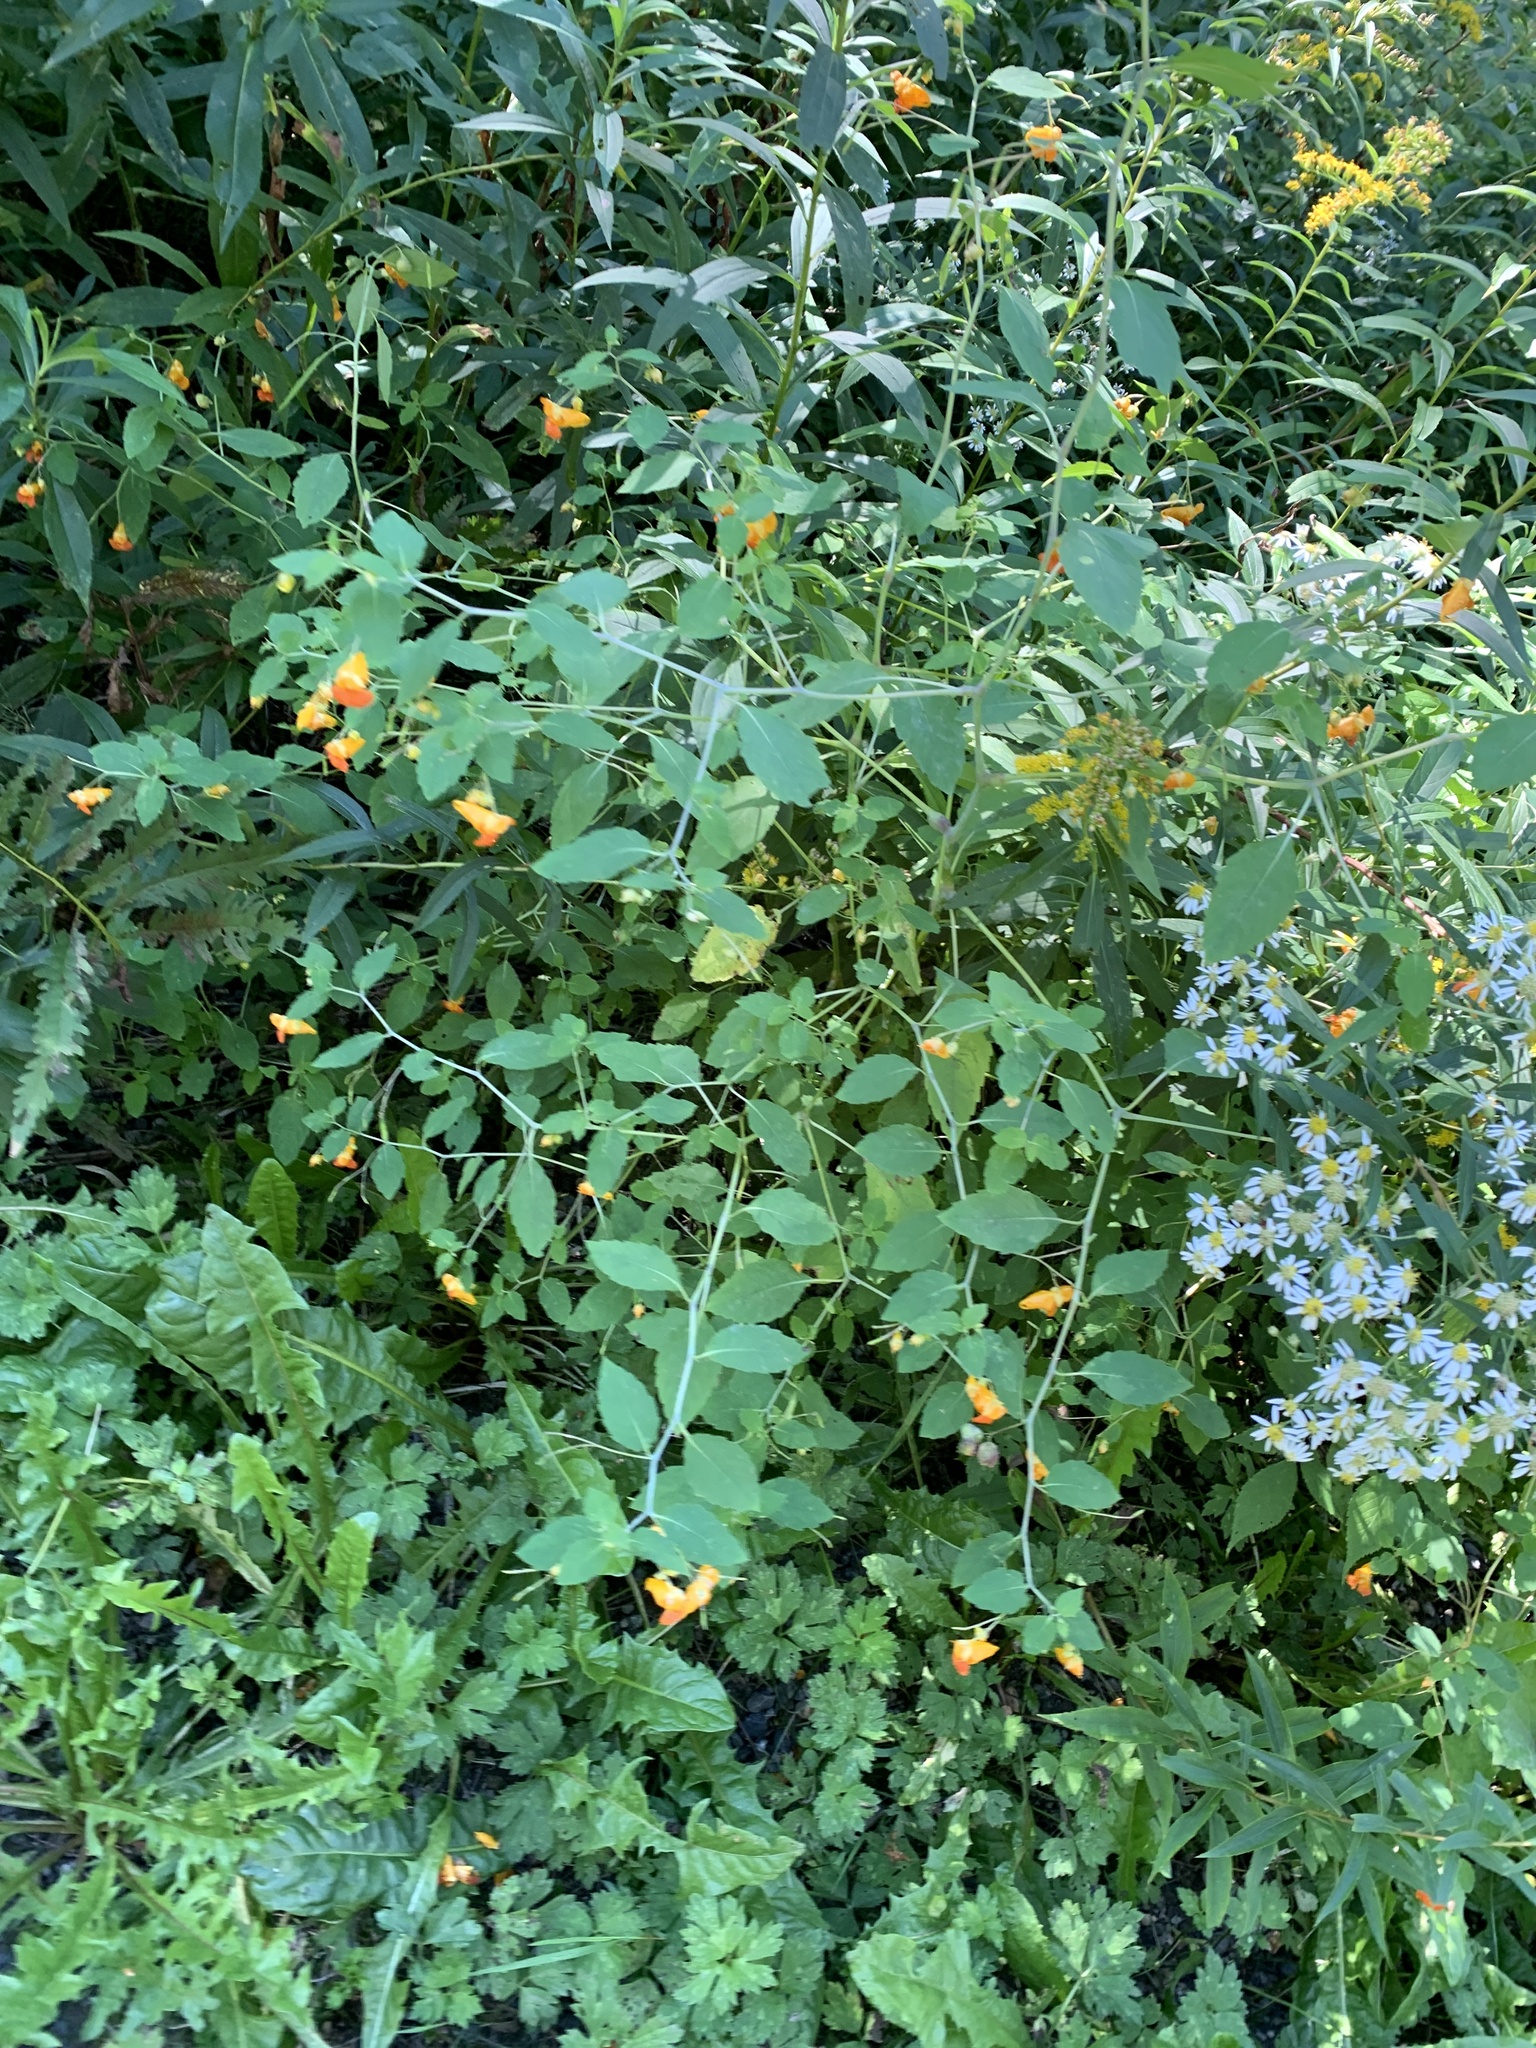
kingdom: Plantae
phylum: Tracheophyta
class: Magnoliopsida
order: Ericales
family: Balsaminaceae
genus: Impatiens
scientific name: Impatiens capensis
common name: Orange balsam
